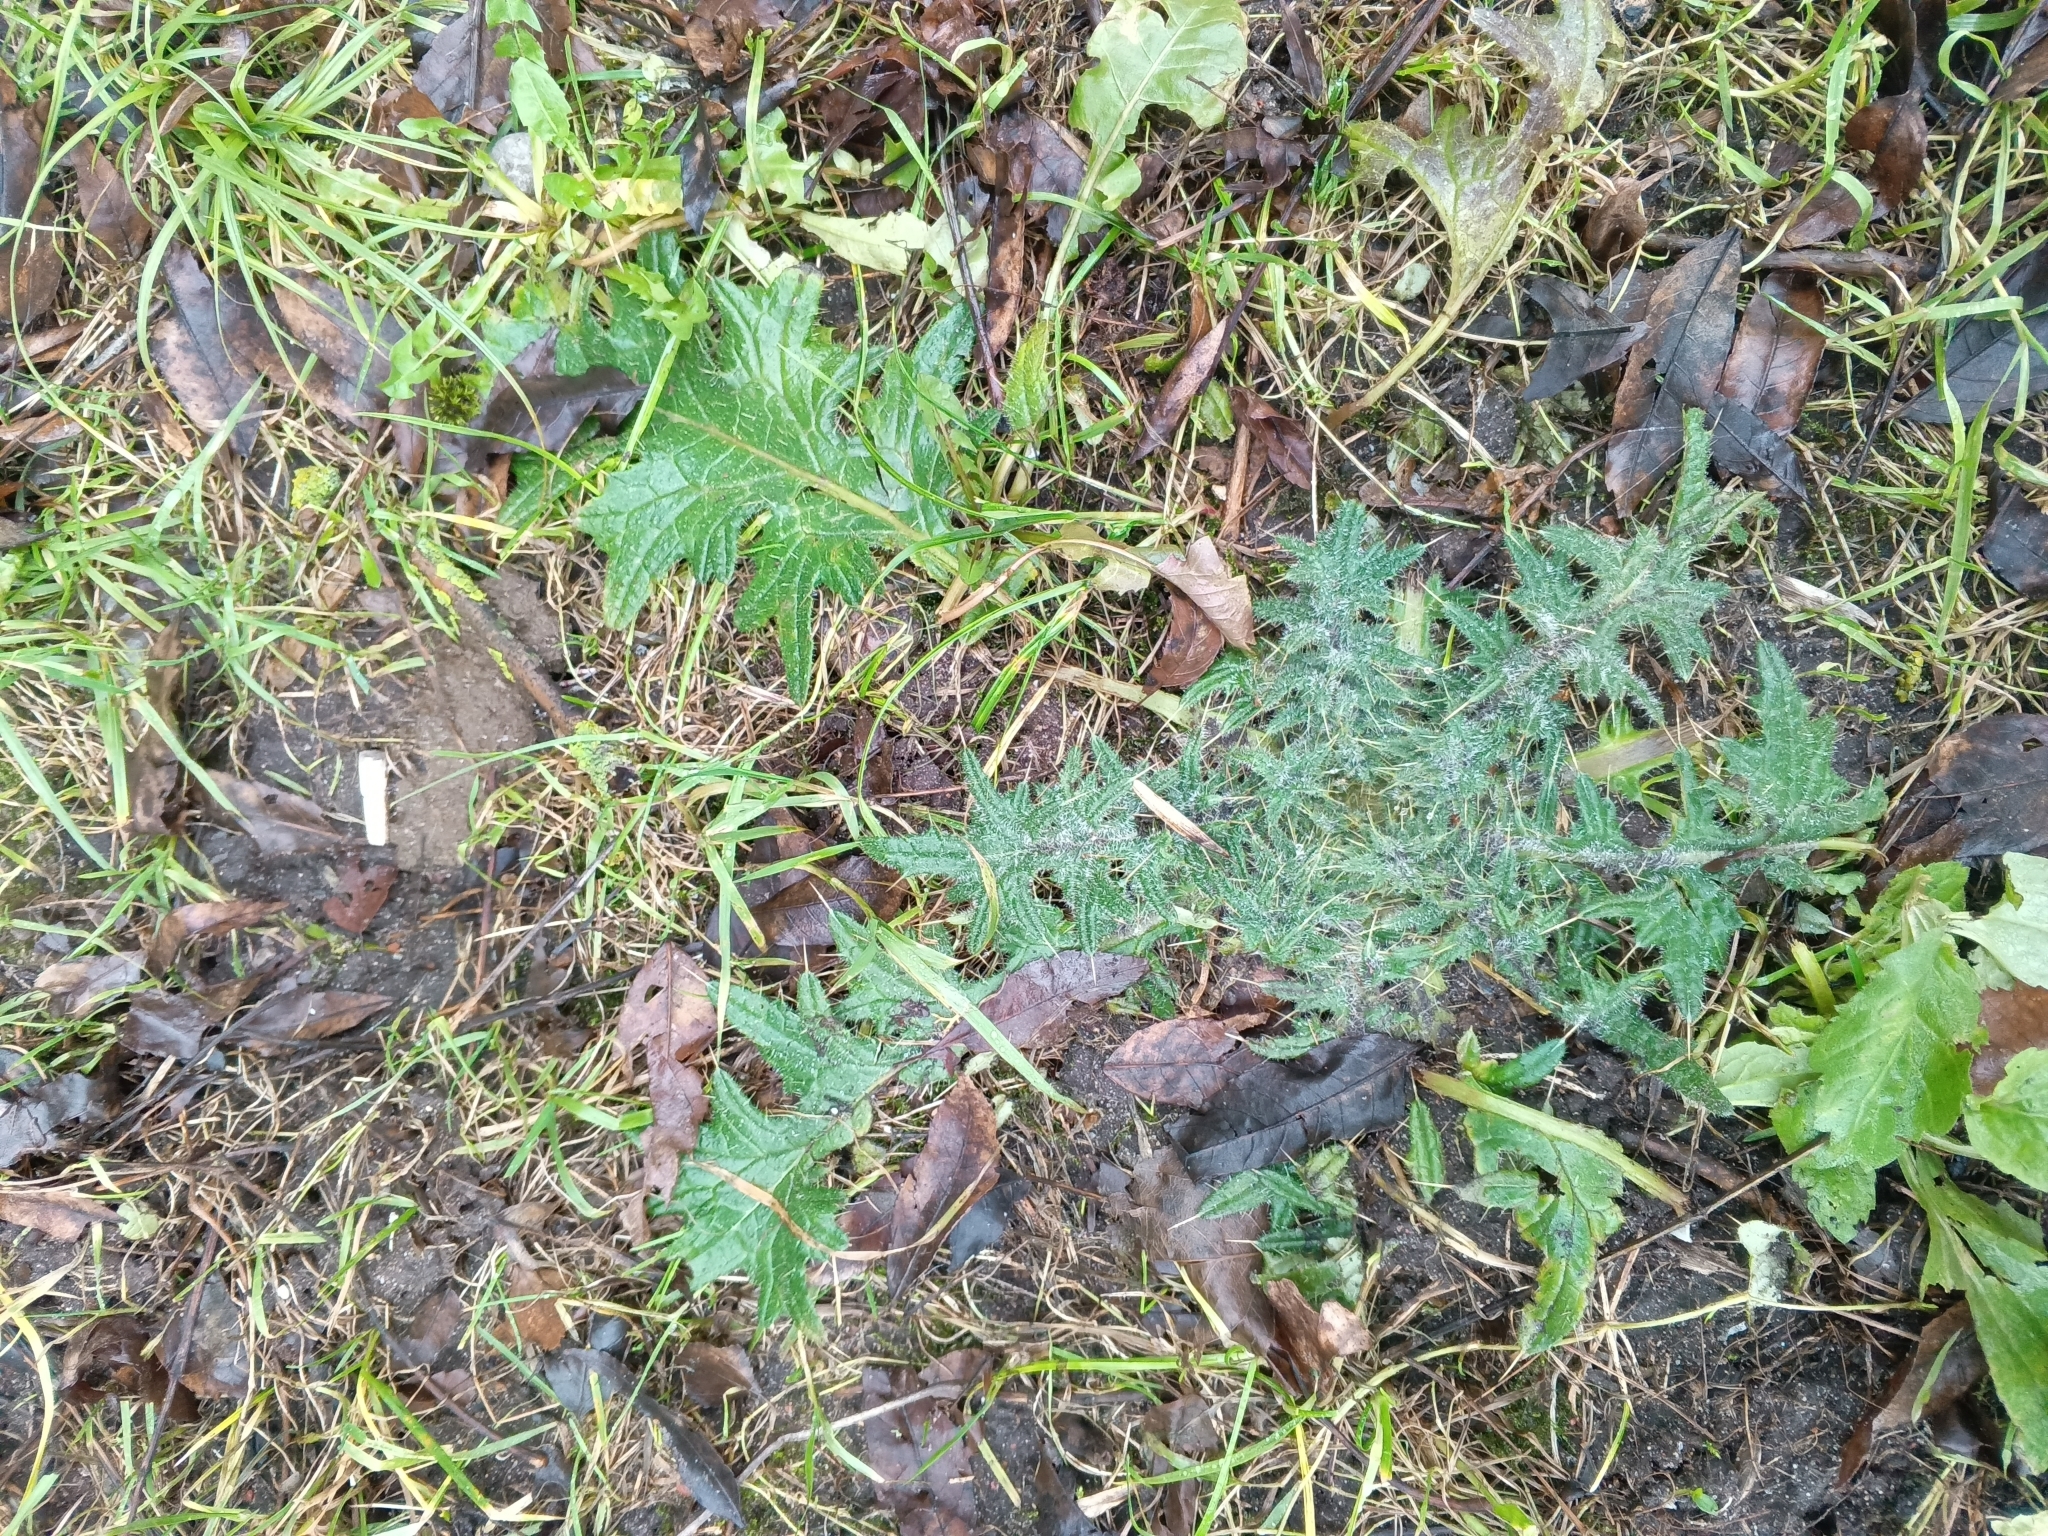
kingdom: Plantae
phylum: Tracheophyta
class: Magnoliopsida
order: Asterales
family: Asteraceae
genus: Cirsium
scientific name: Cirsium vulgare
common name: Bull thistle
